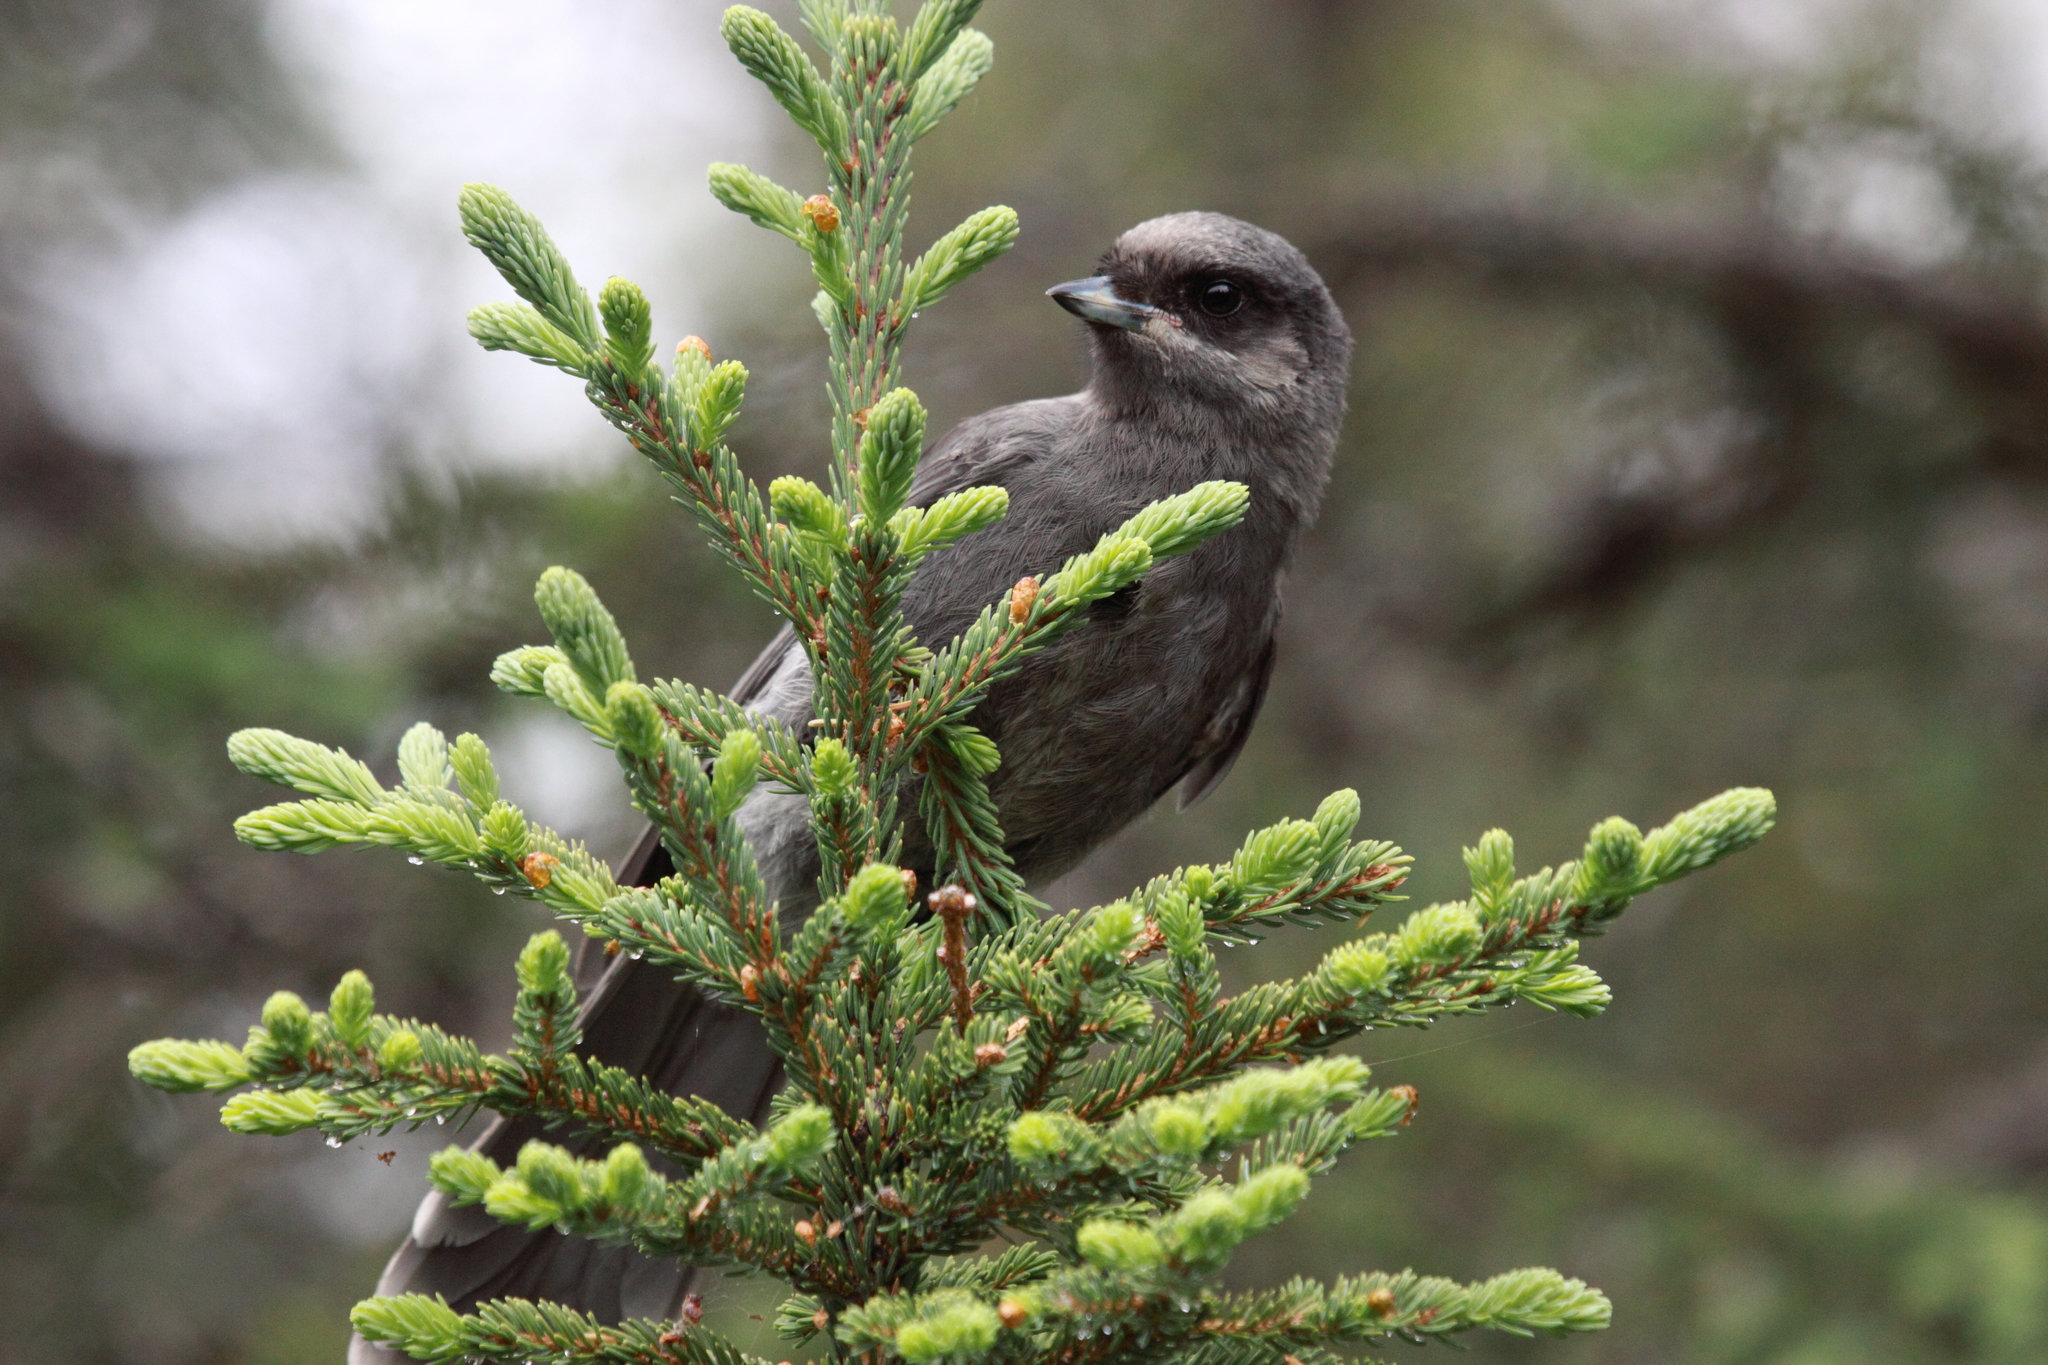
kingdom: Plantae
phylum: Tracheophyta
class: Pinopsida
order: Pinales
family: Pinaceae
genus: Picea
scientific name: Picea glauca
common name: White spruce
